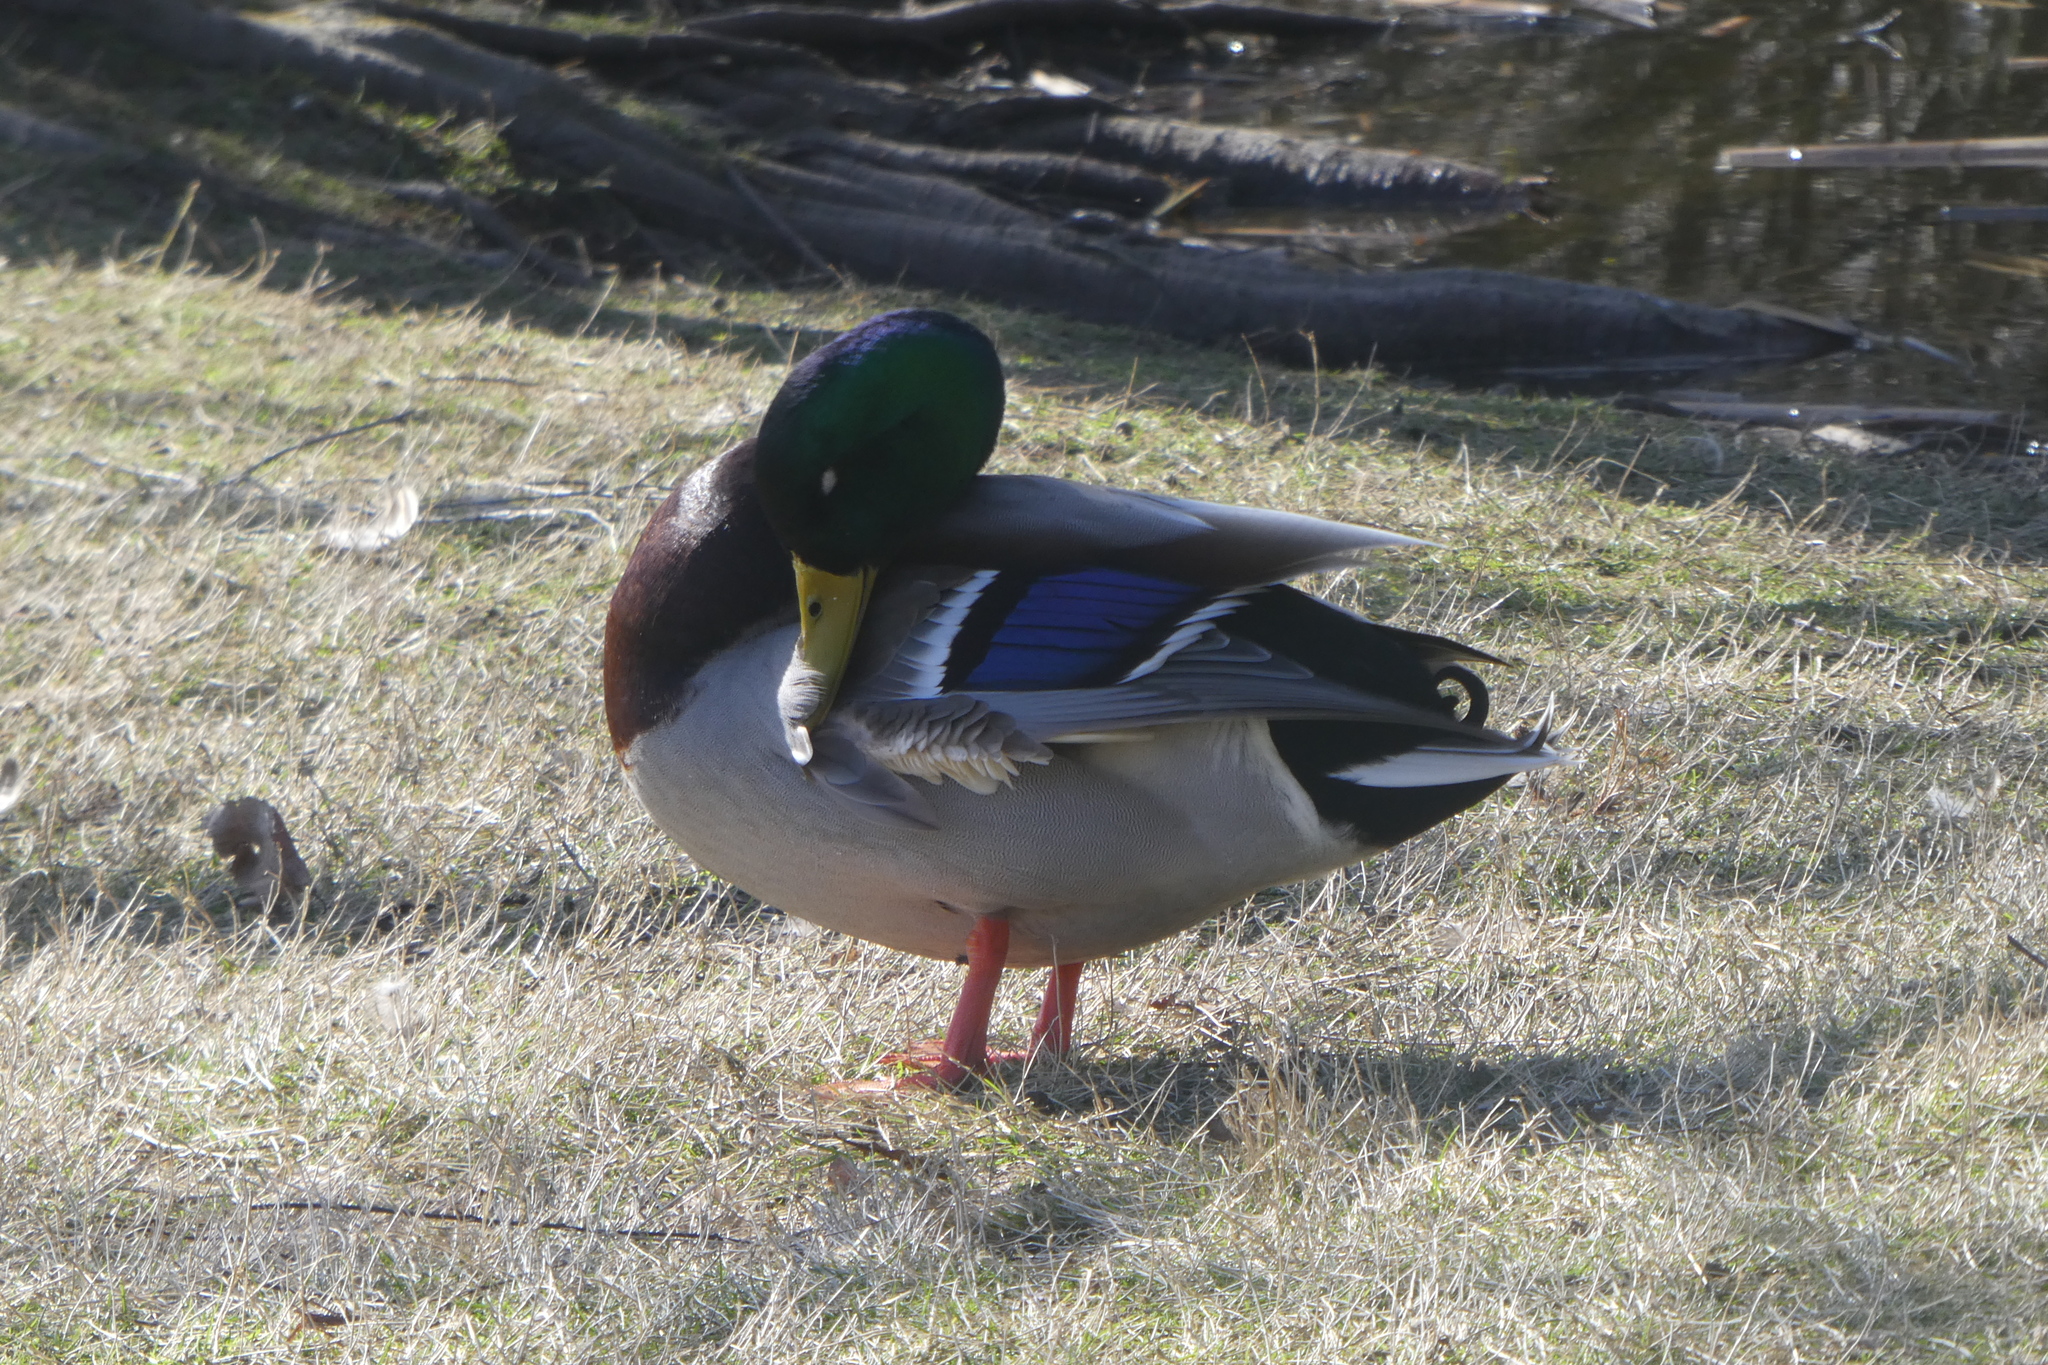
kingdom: Animalia
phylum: Chordata
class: Aves
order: Anseriformes
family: Anatidae
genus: Anas
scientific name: Anas platyrhynchos
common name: Mallard
